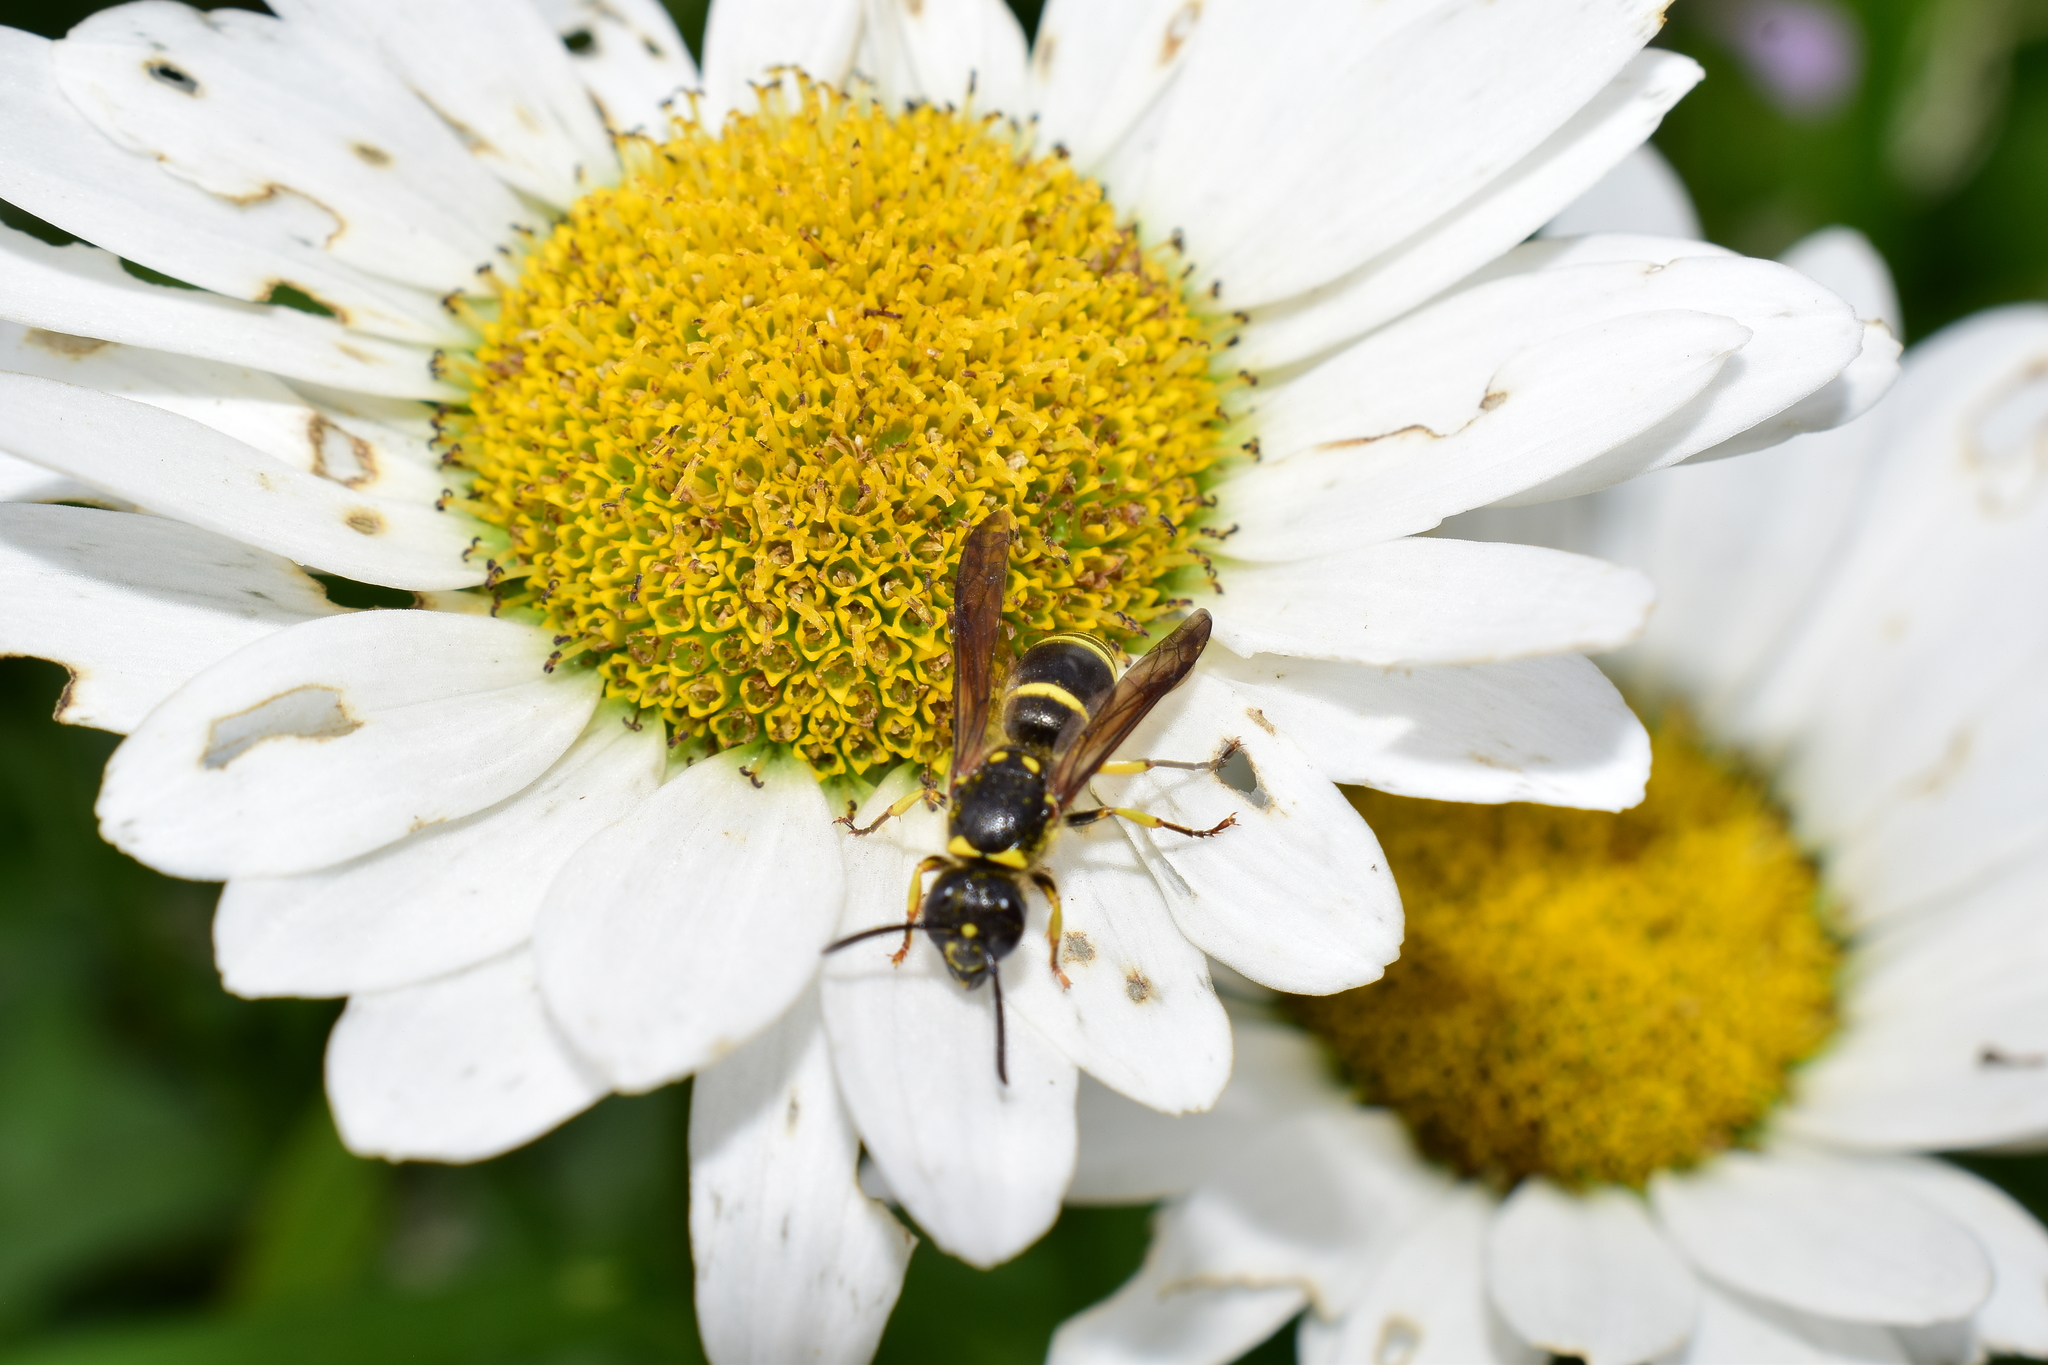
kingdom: Animalia
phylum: Arthropoda
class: Insecta
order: Hymenoptera
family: Vespidae
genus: Ancistrocerus
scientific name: Ancistrocerus
